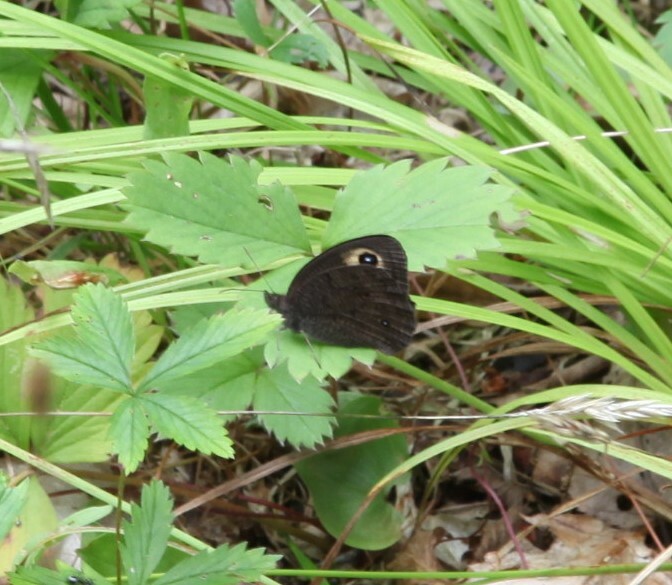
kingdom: Animalia
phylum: Arthropoda
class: Insecta
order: Lepidoptera
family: Nymphalidae
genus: Cercyonis
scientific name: Cercyonis pegala
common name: Common wood-nymph
